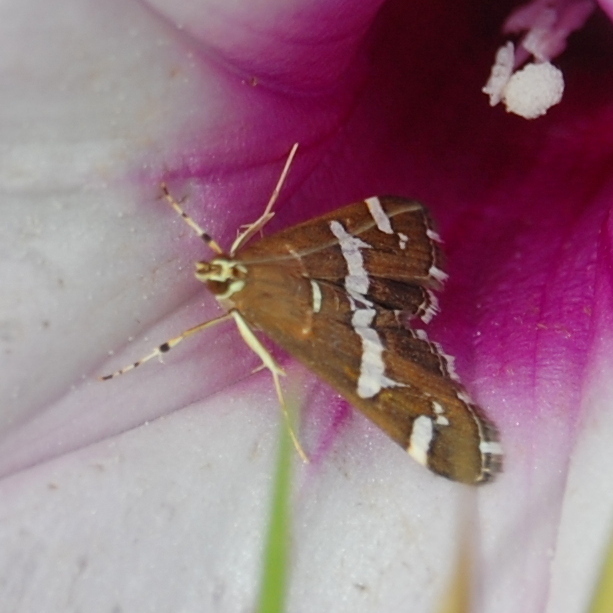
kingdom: Animalia
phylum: Arthropoda
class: Insecta
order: Lepidoptera
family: Crambidae
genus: Spoladea
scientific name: Spoladea recurvalis
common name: Beet webworm moth
